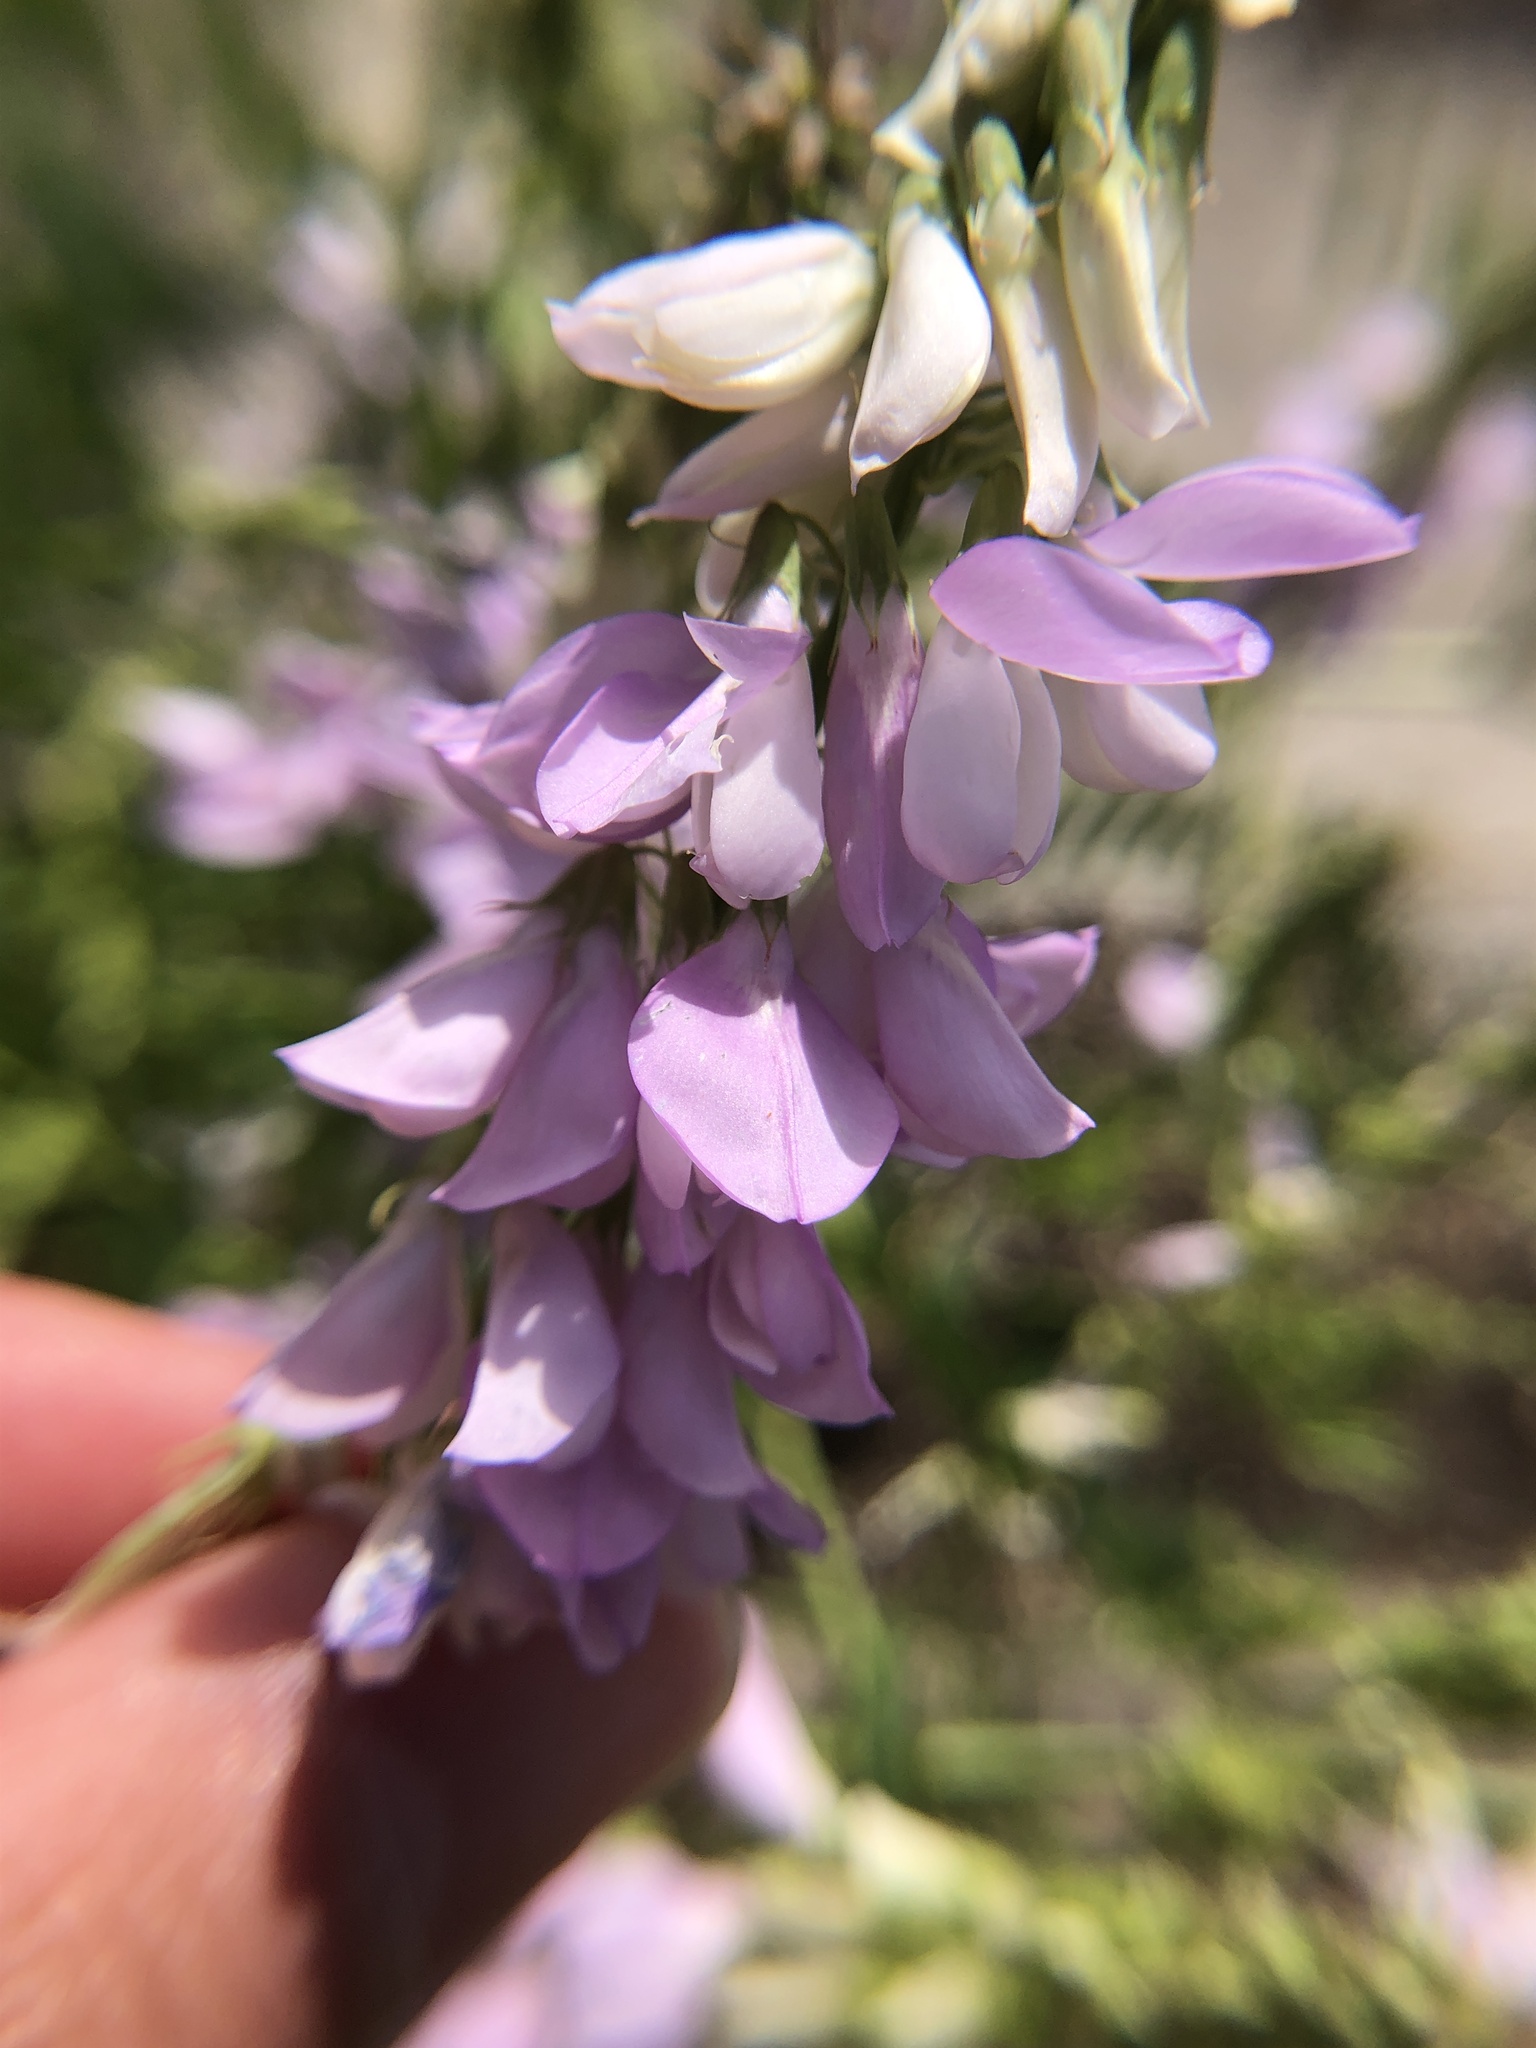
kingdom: Plantae
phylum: Tracheophyta
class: Magnoliopsida
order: Fabales
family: Fabaceae
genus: Galega
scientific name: Galega officinalis
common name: Goat's-rue
